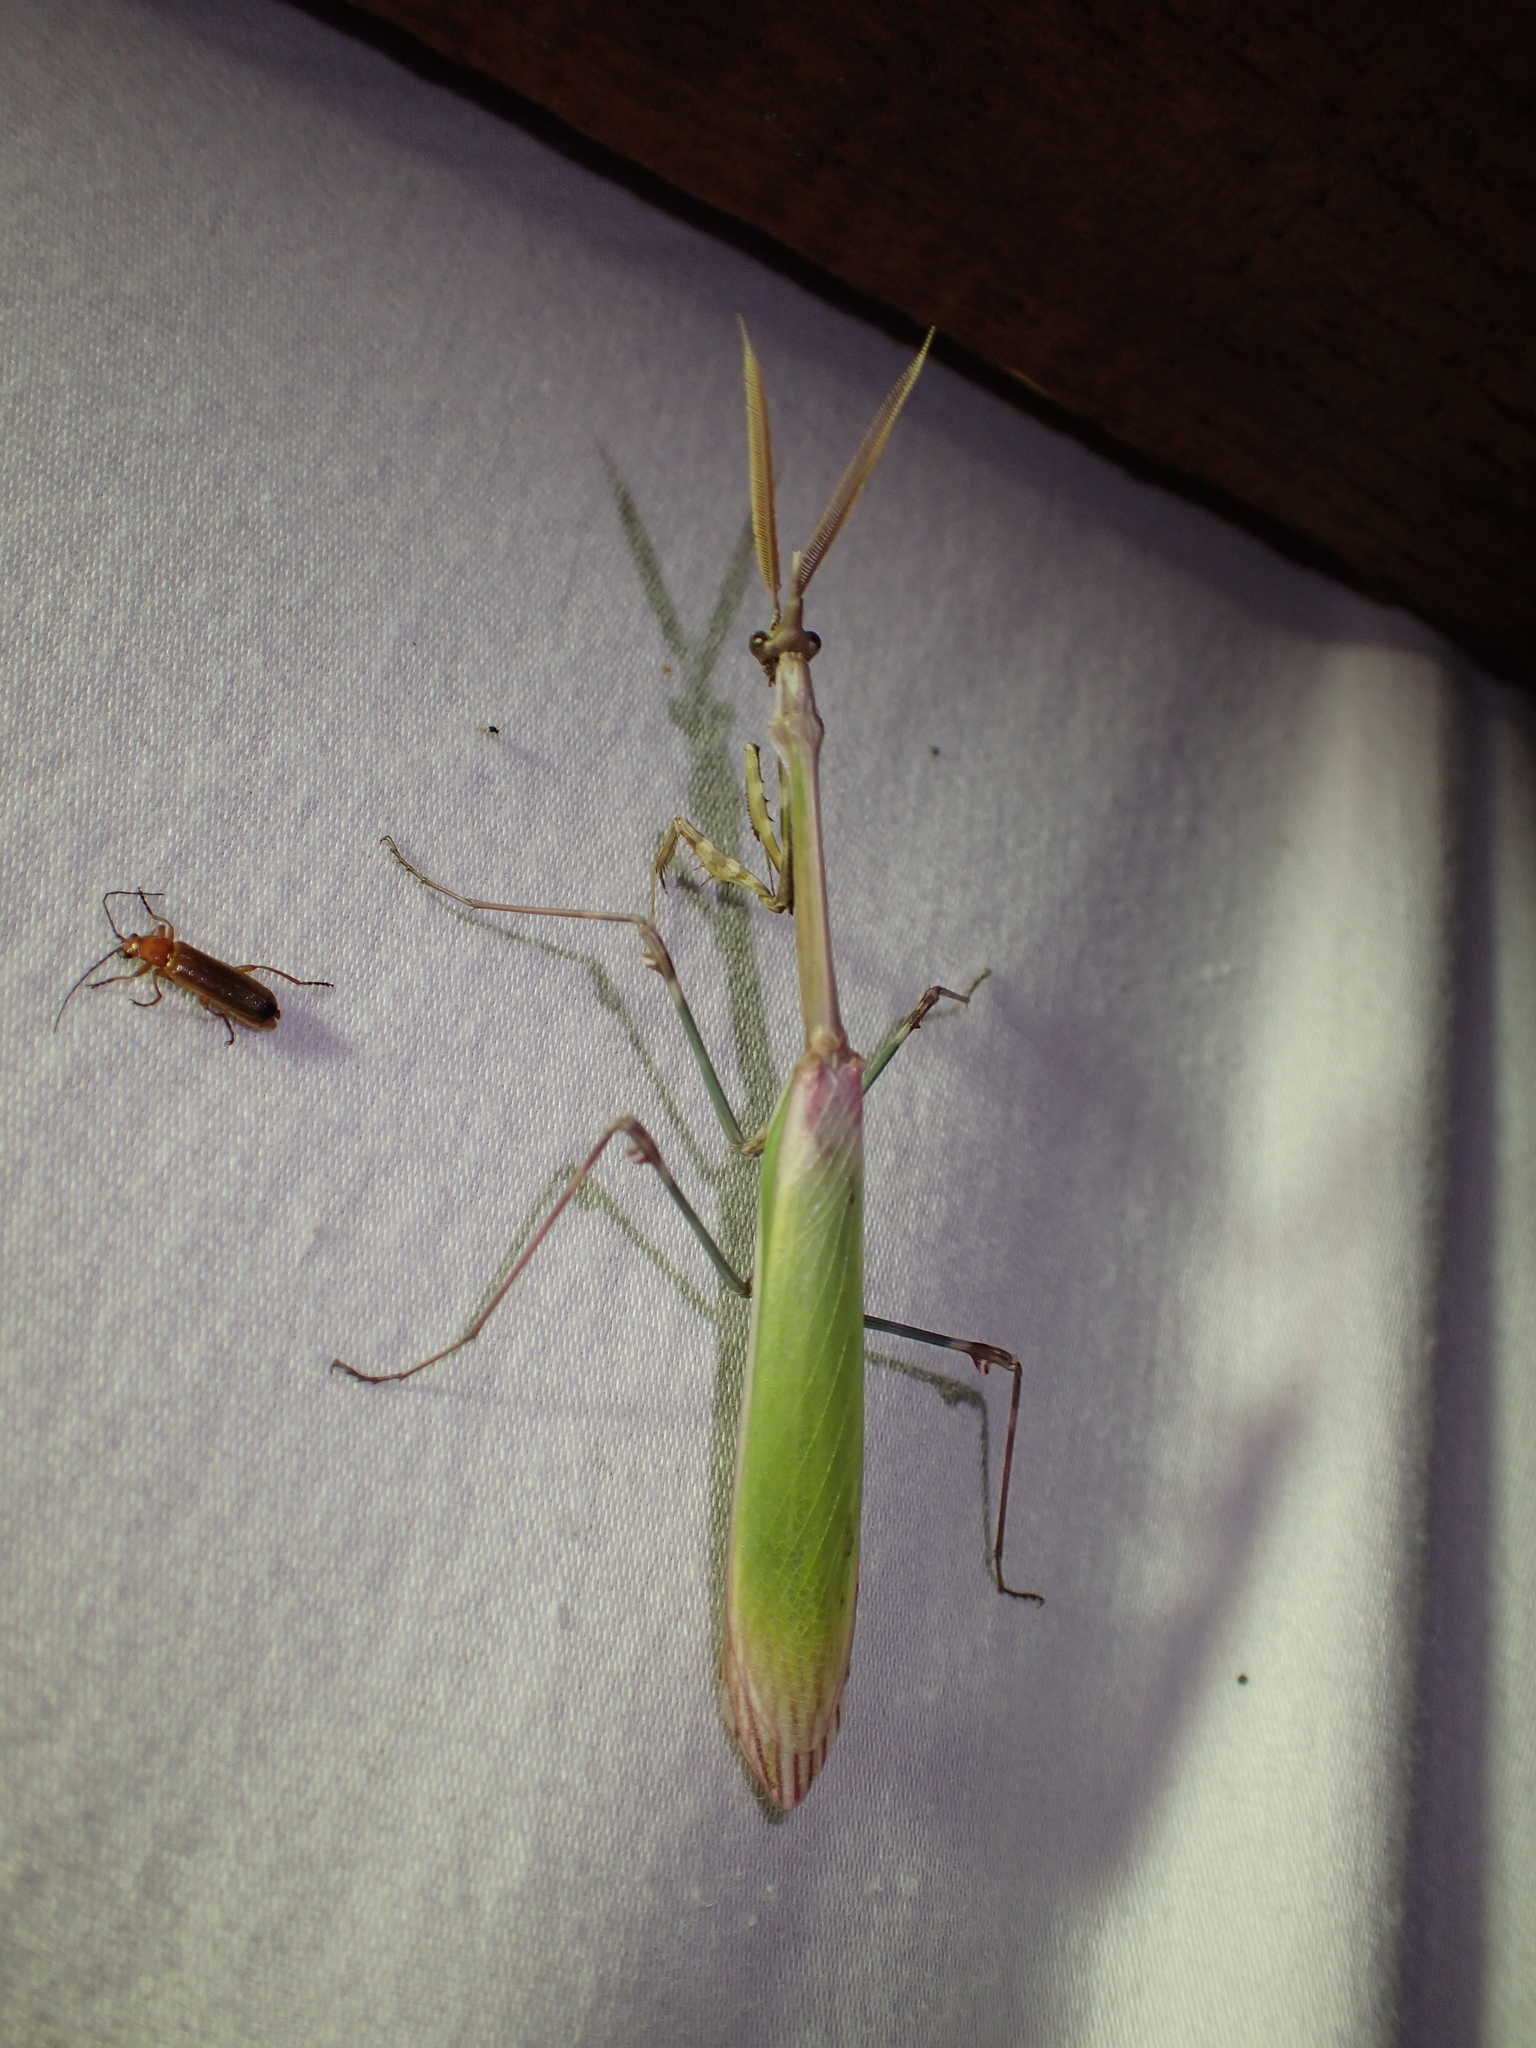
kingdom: Animalia
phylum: Arthropoda
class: Insecta
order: Mantodea
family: Empusidae
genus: Empusa
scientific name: Empusa pennata
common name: Conehead mantis
